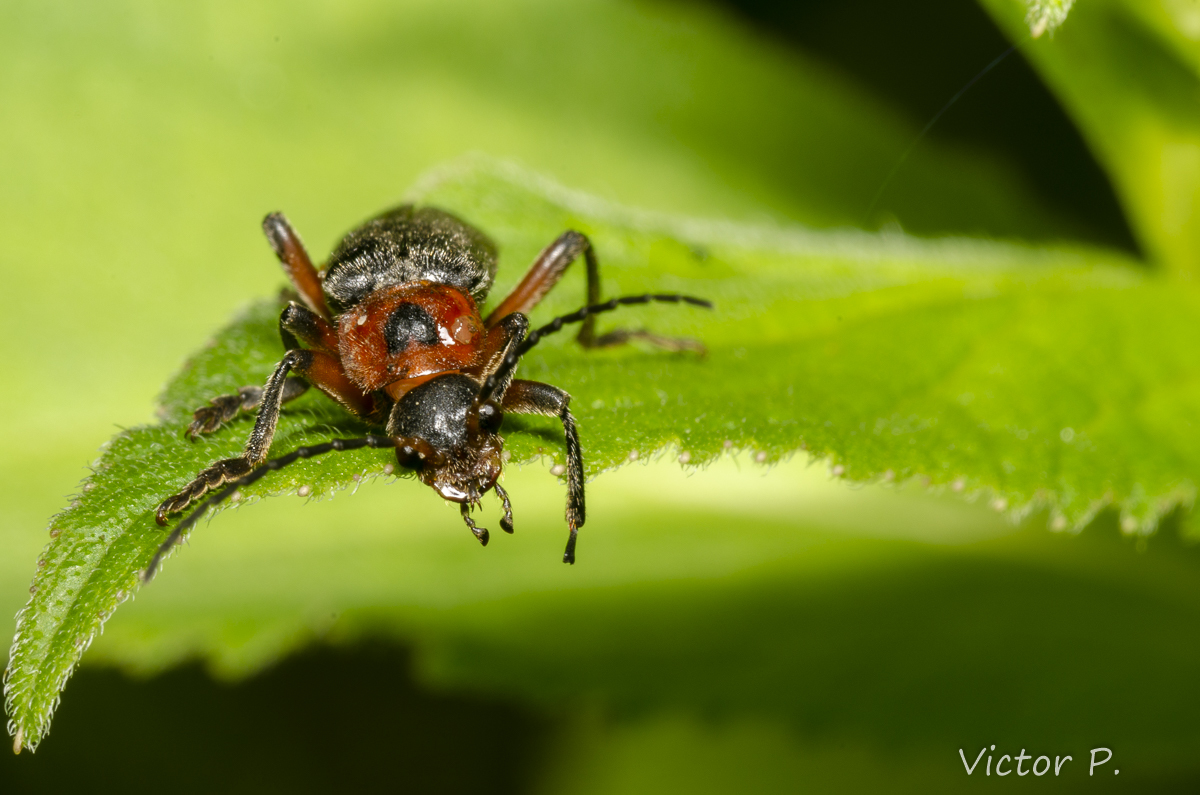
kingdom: Animalia
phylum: Arthropoda
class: Insecta
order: Coleoptera
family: Cantharidae
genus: Cantharis
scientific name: Cantharis rustica
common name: Soldier beetle
